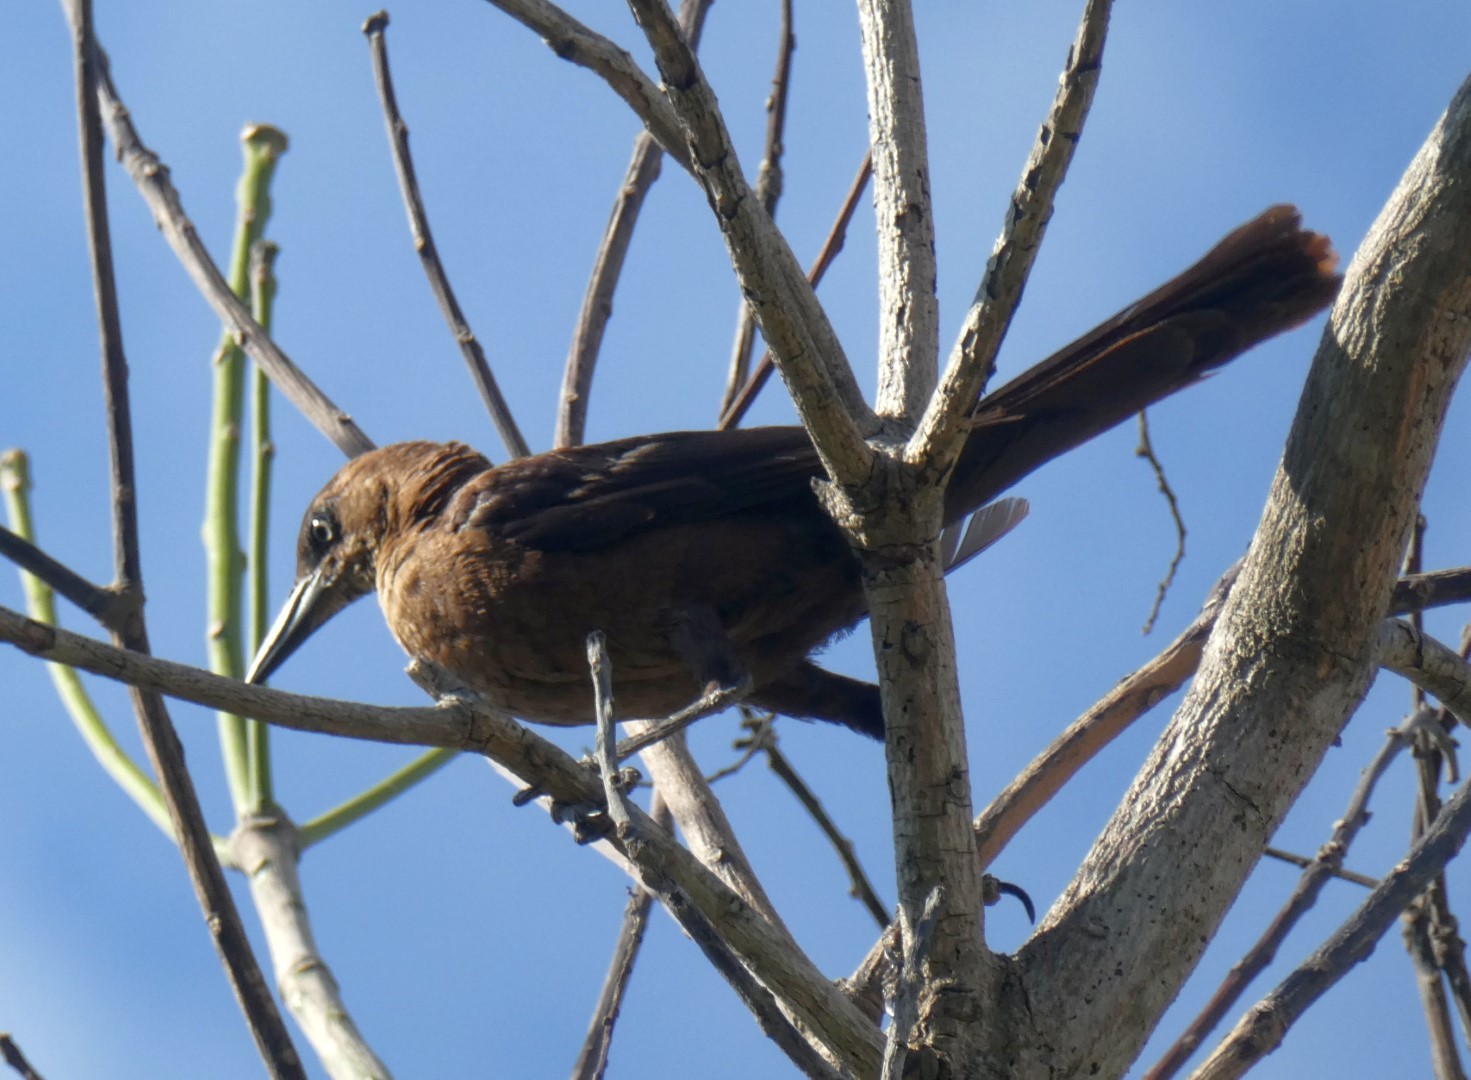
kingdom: Animalia
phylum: Chordata
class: Aves
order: Passeriformes
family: Icteridae
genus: Quiscalus
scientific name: Quiscalus mexicanus
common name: Great-tailed grackle
